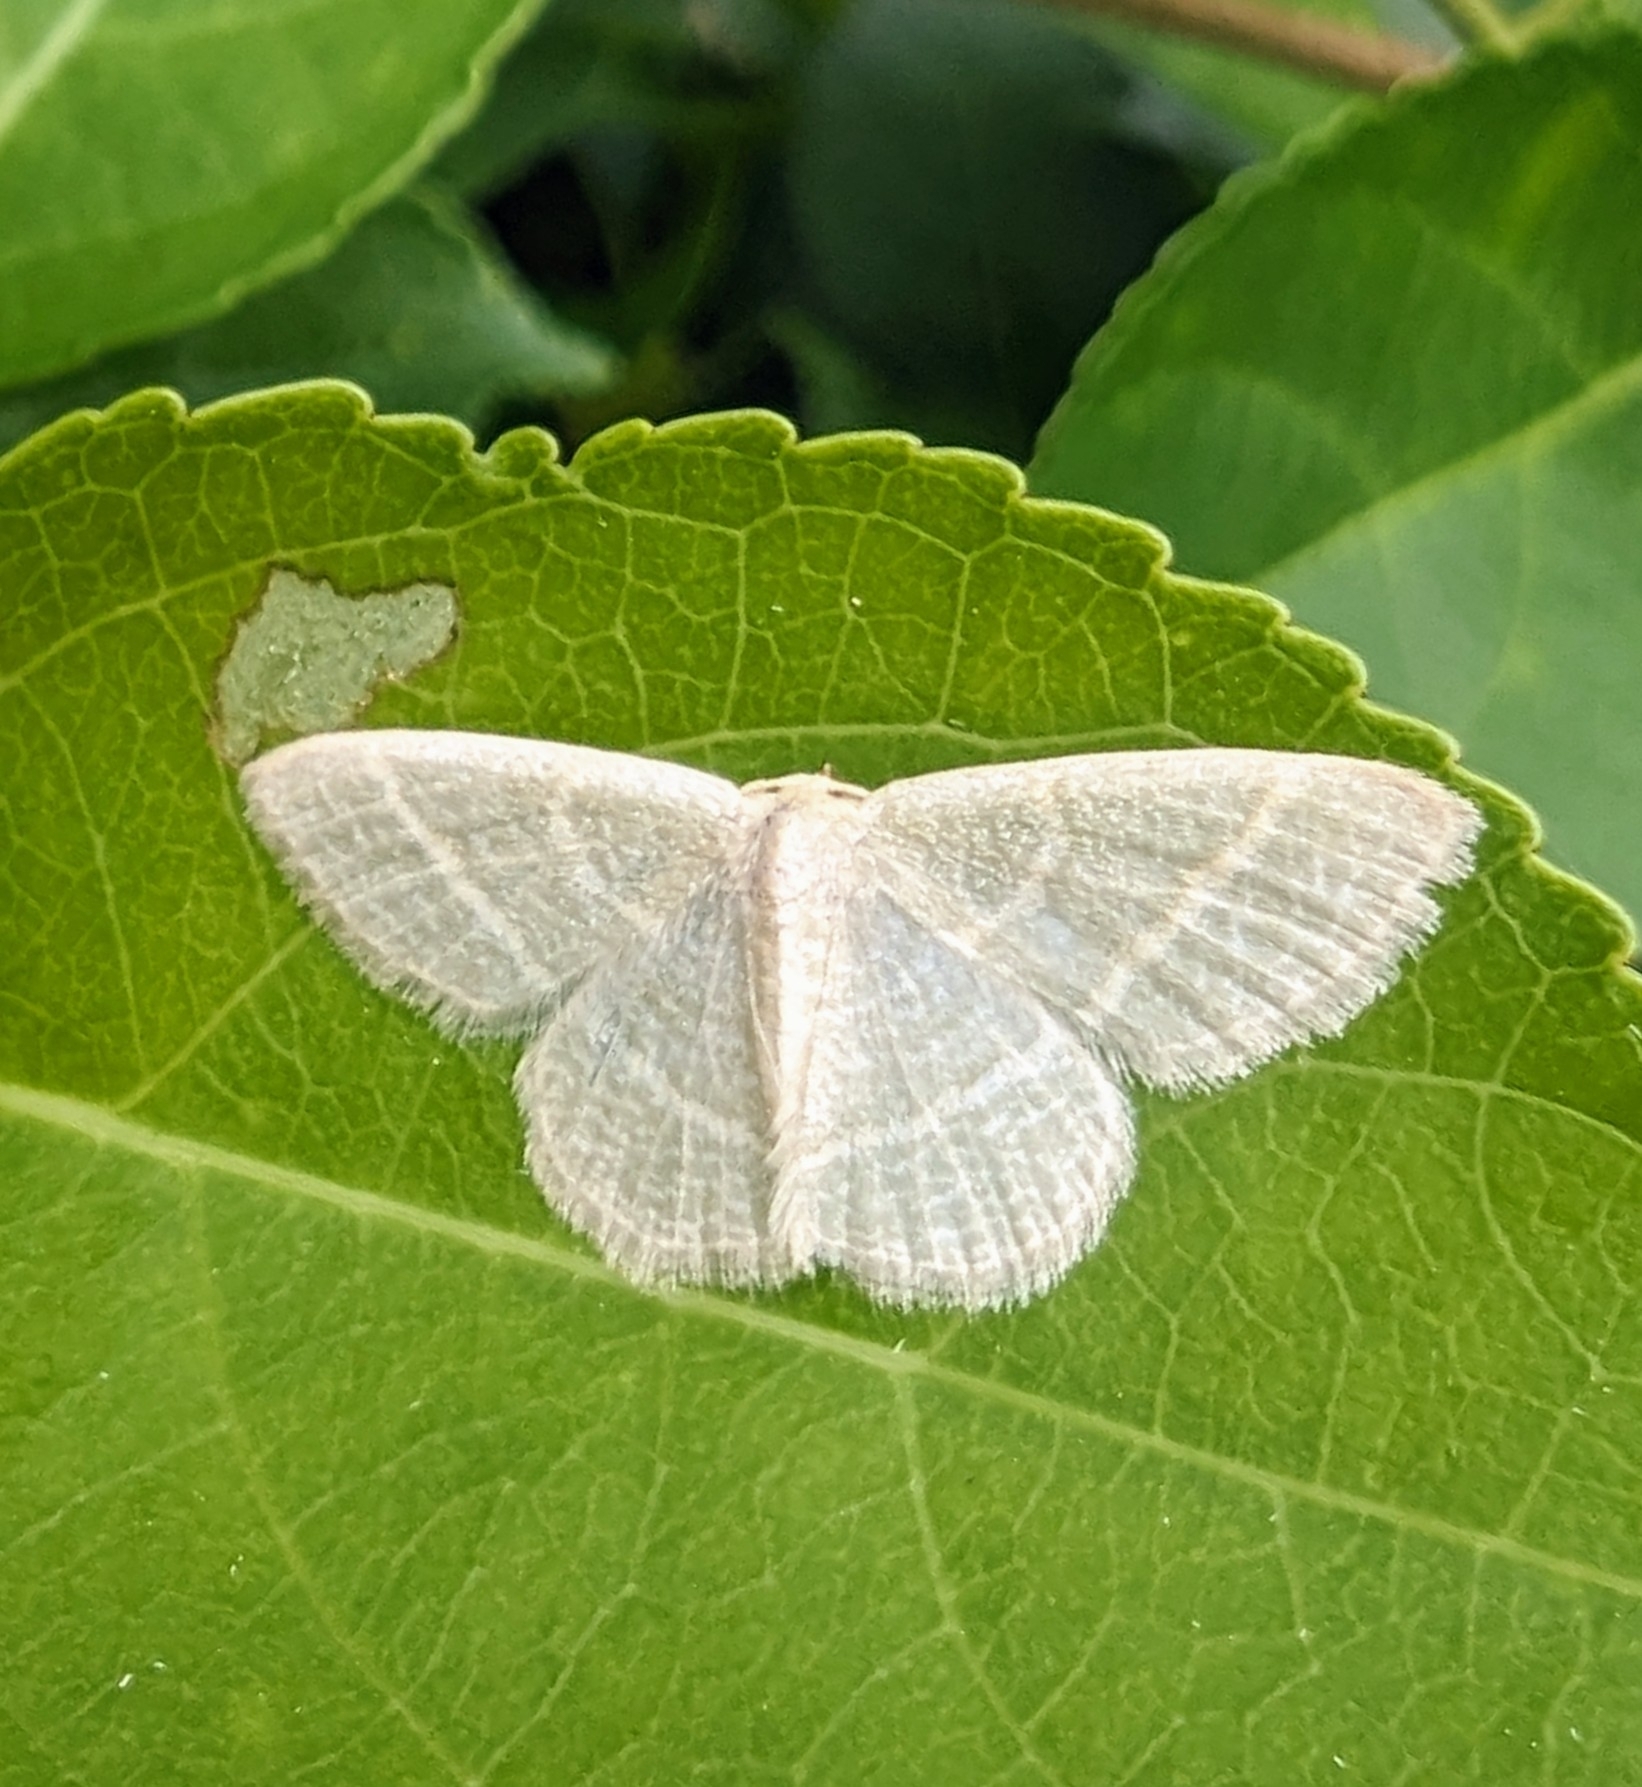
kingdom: Animalia
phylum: Arthropoda
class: Insecta
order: Lepidoptera
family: Geometridae
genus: Chlorochlamys
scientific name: Chlorochlamys chloroleucaria
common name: Blackberry looper
